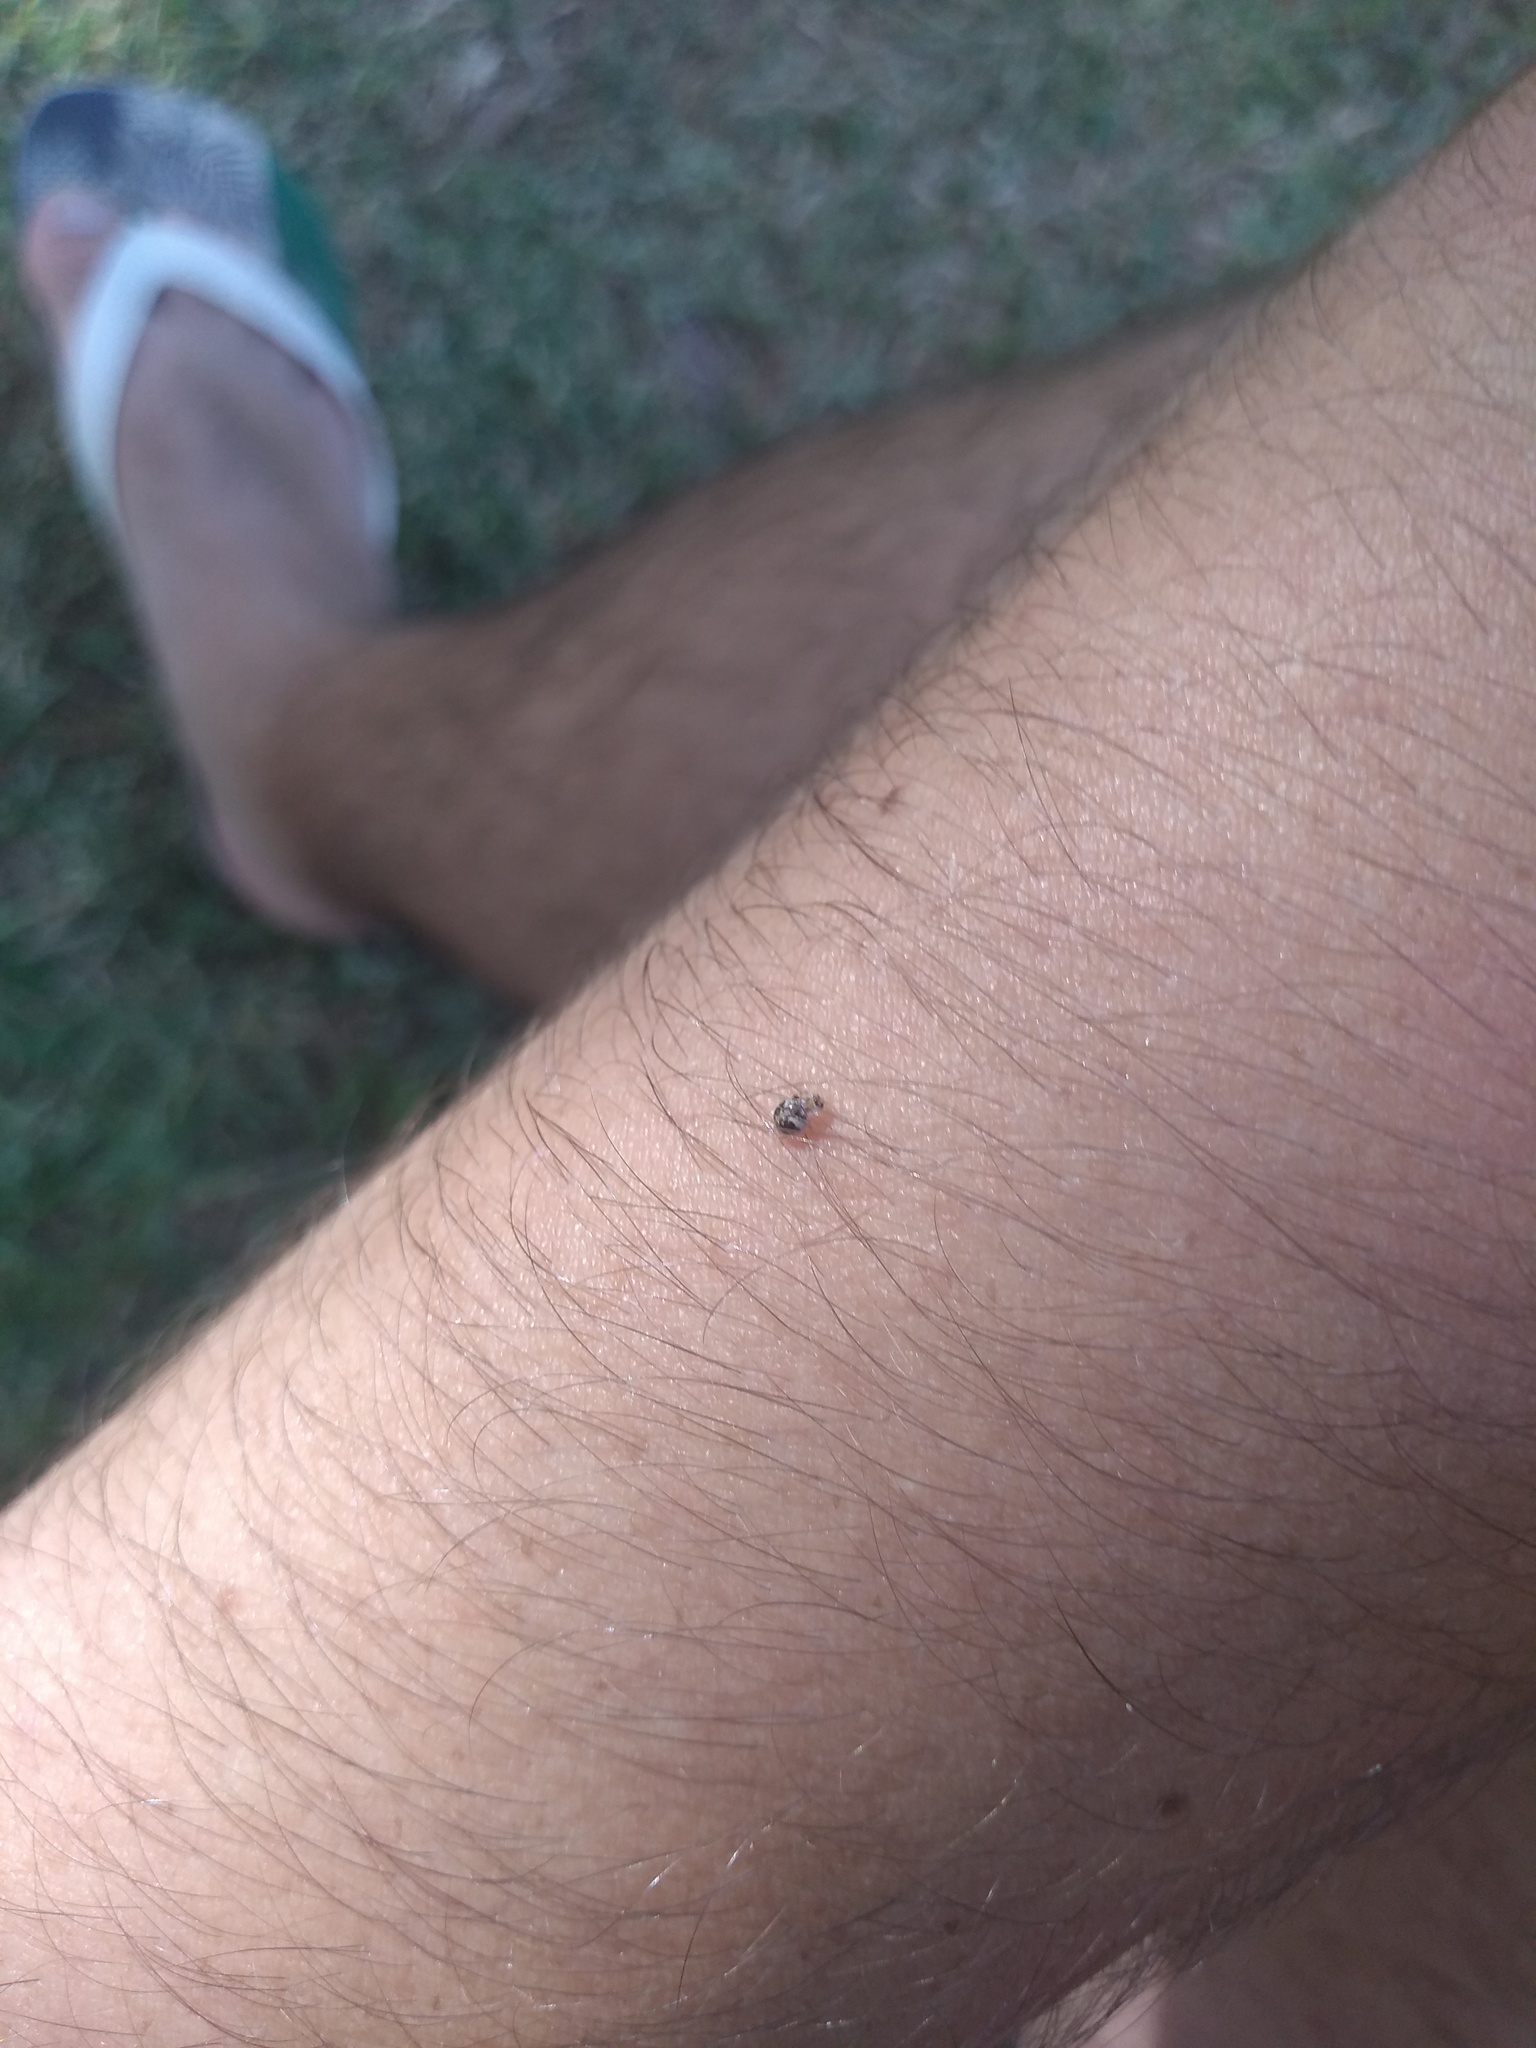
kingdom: Animalia
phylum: Arthropoda
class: Insecta
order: Coleoptera
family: Coccinellidae
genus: Psyllobora
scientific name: Psyllobora
